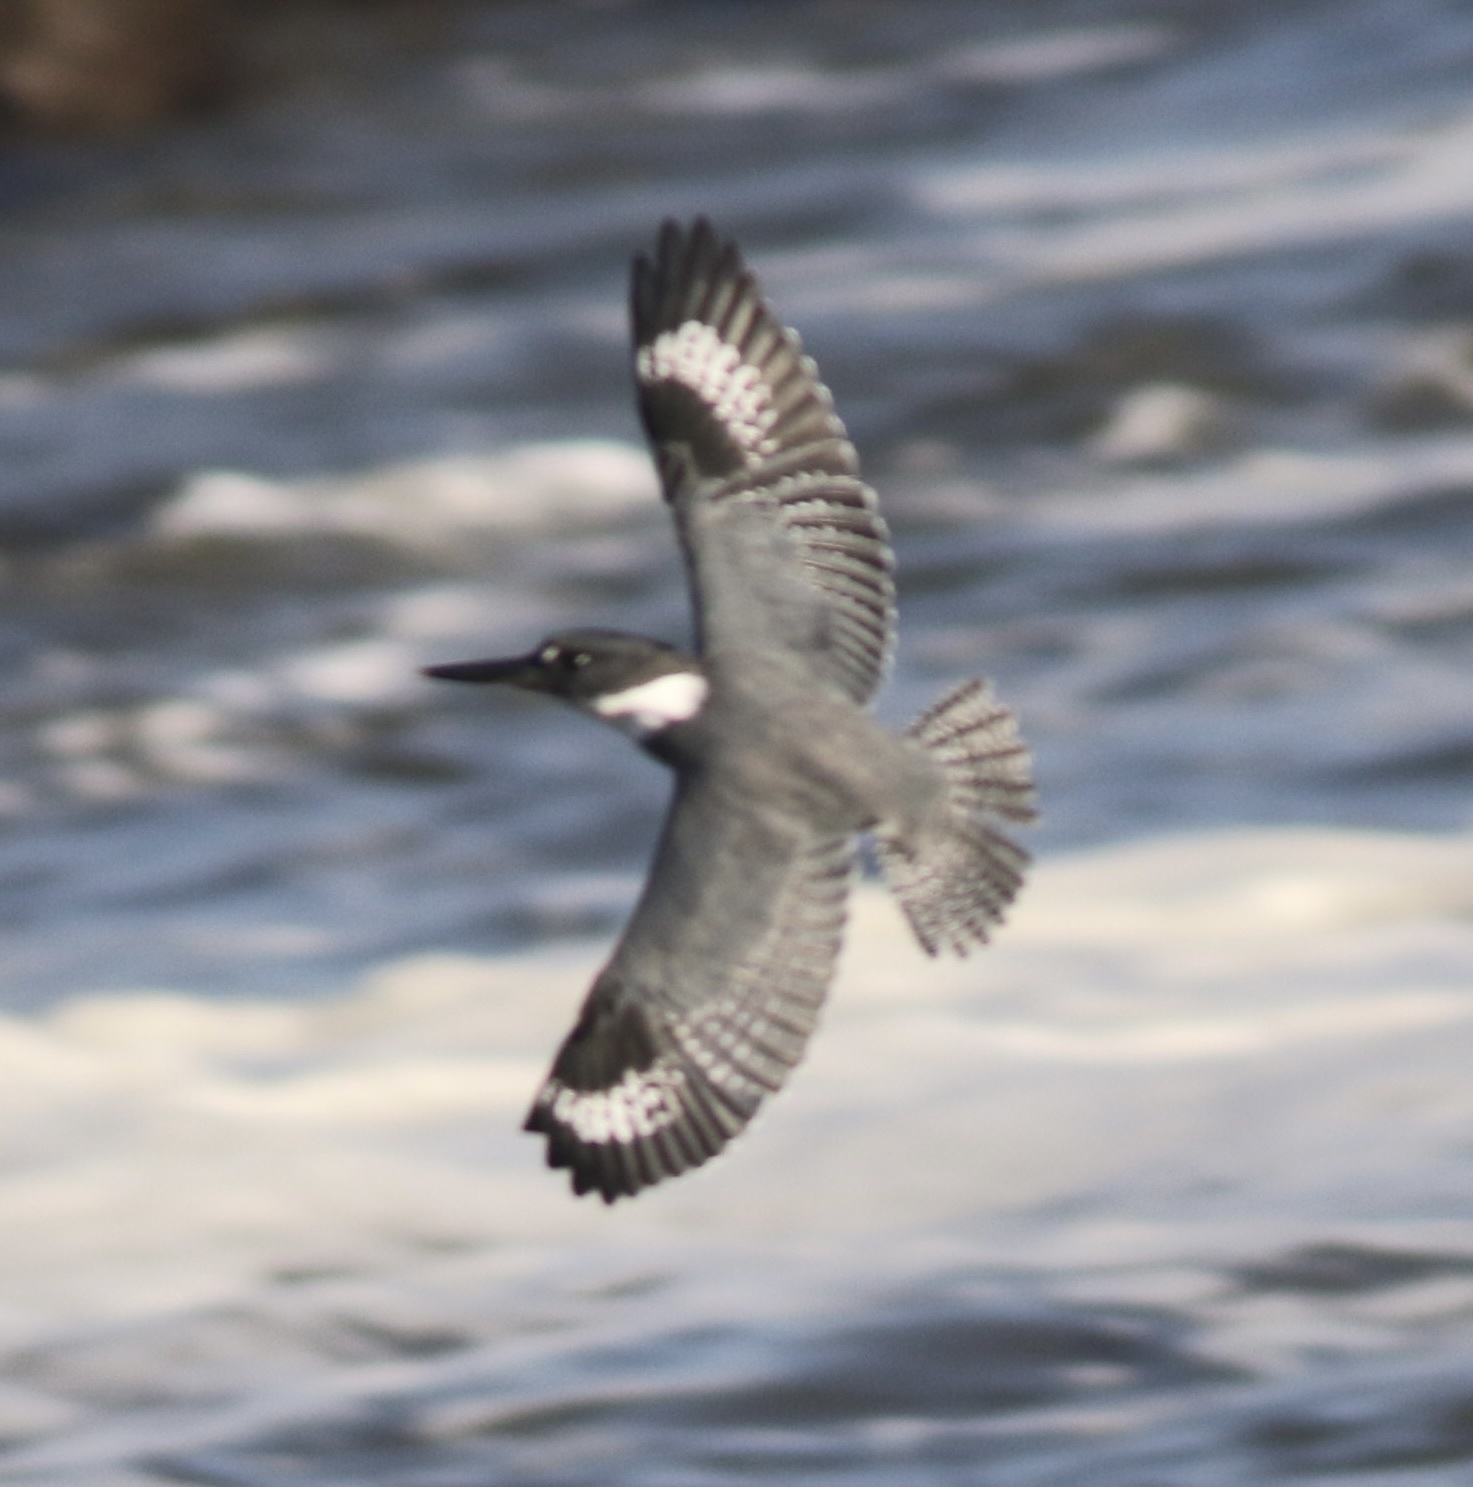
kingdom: Animalia
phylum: Chordata
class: Aves
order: Coraciiformes
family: Alcedinidae
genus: Megaceryle
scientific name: Megaceryle alcyon
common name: Belted kingfisher
